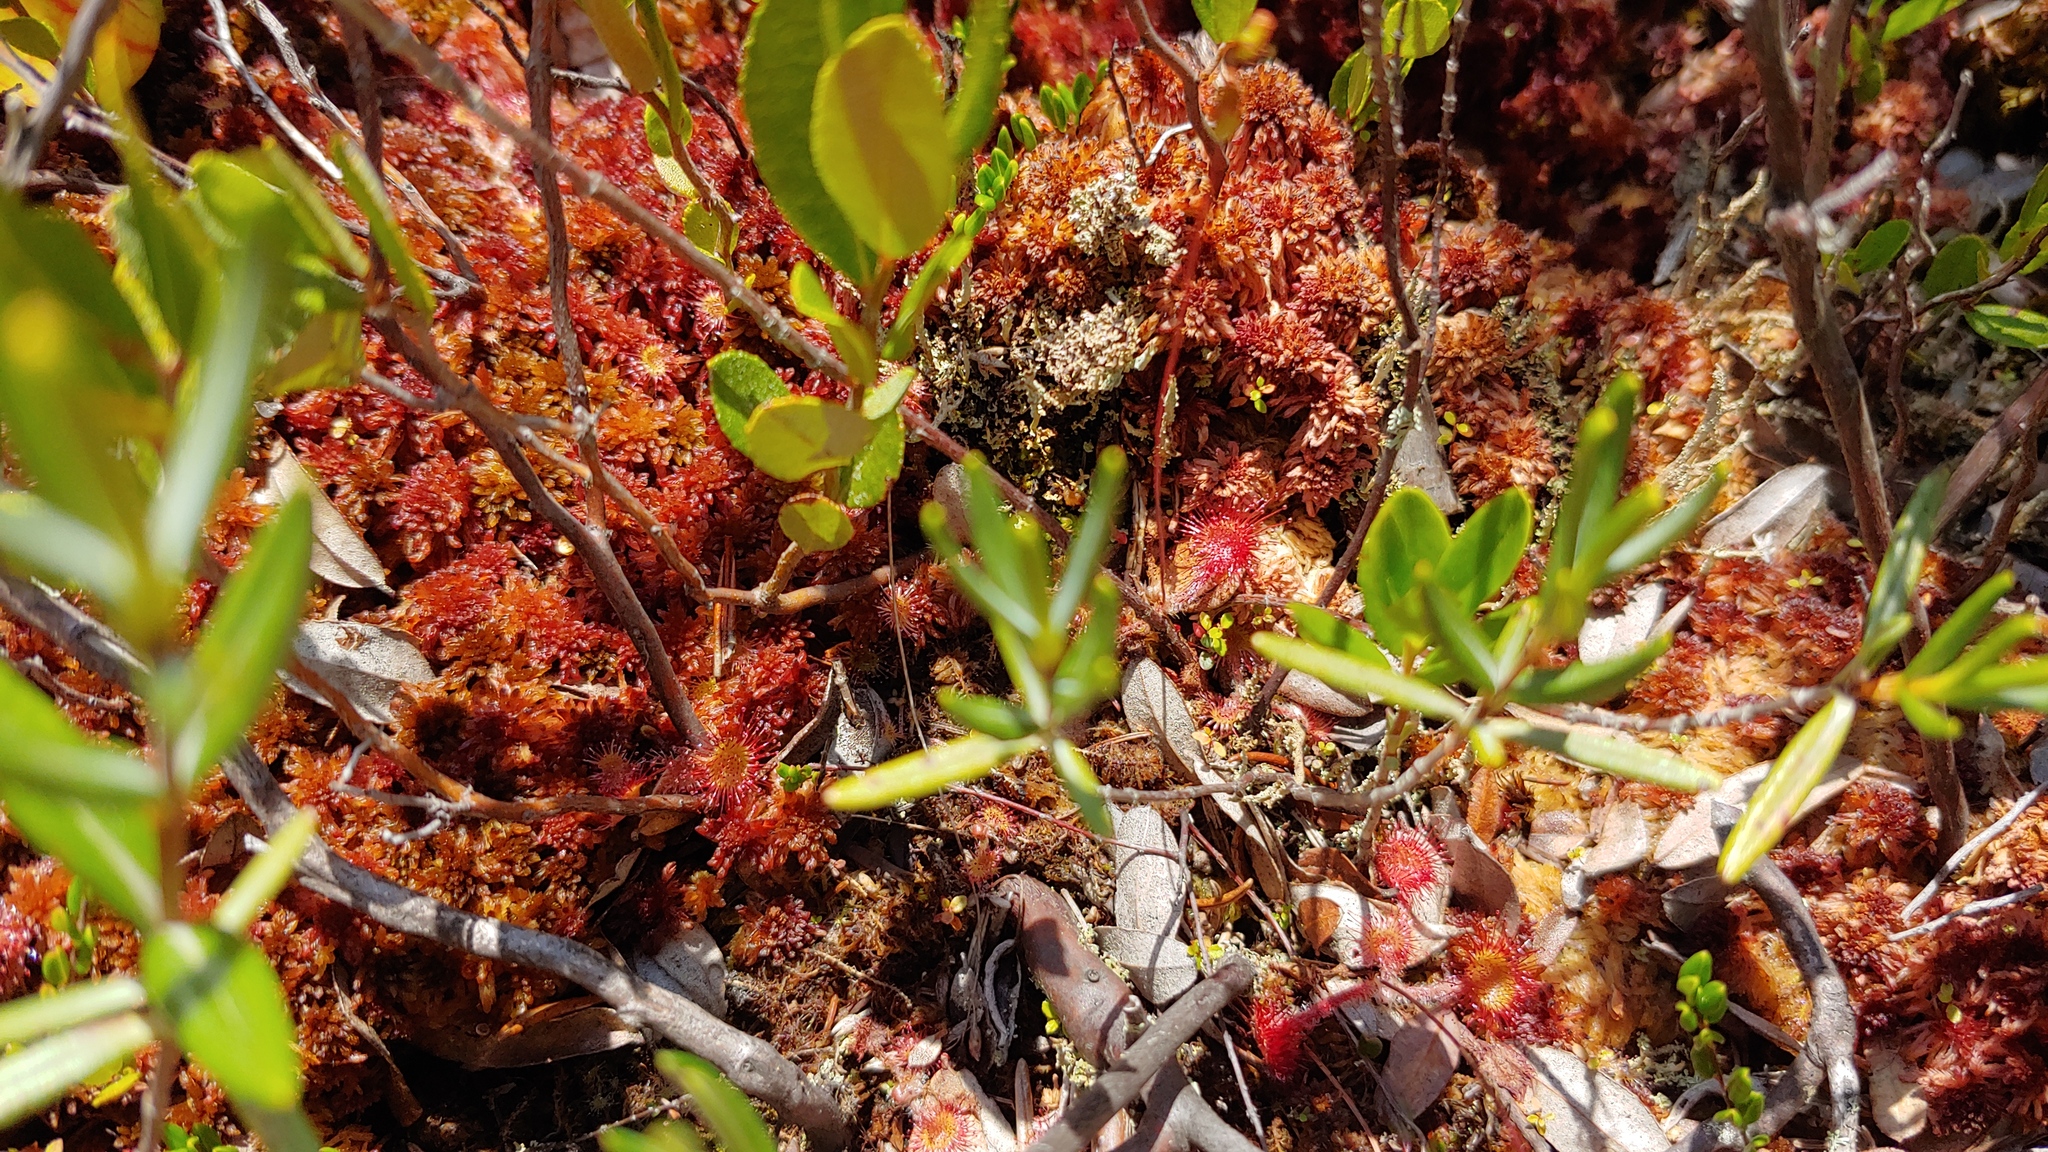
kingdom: Plantae
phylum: Tracheophyta
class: Magnoliopsida
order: Caryophyllales
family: Droseraceae
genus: Drosera
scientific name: Drosera rotundifolia
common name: Round-leaved sundew
